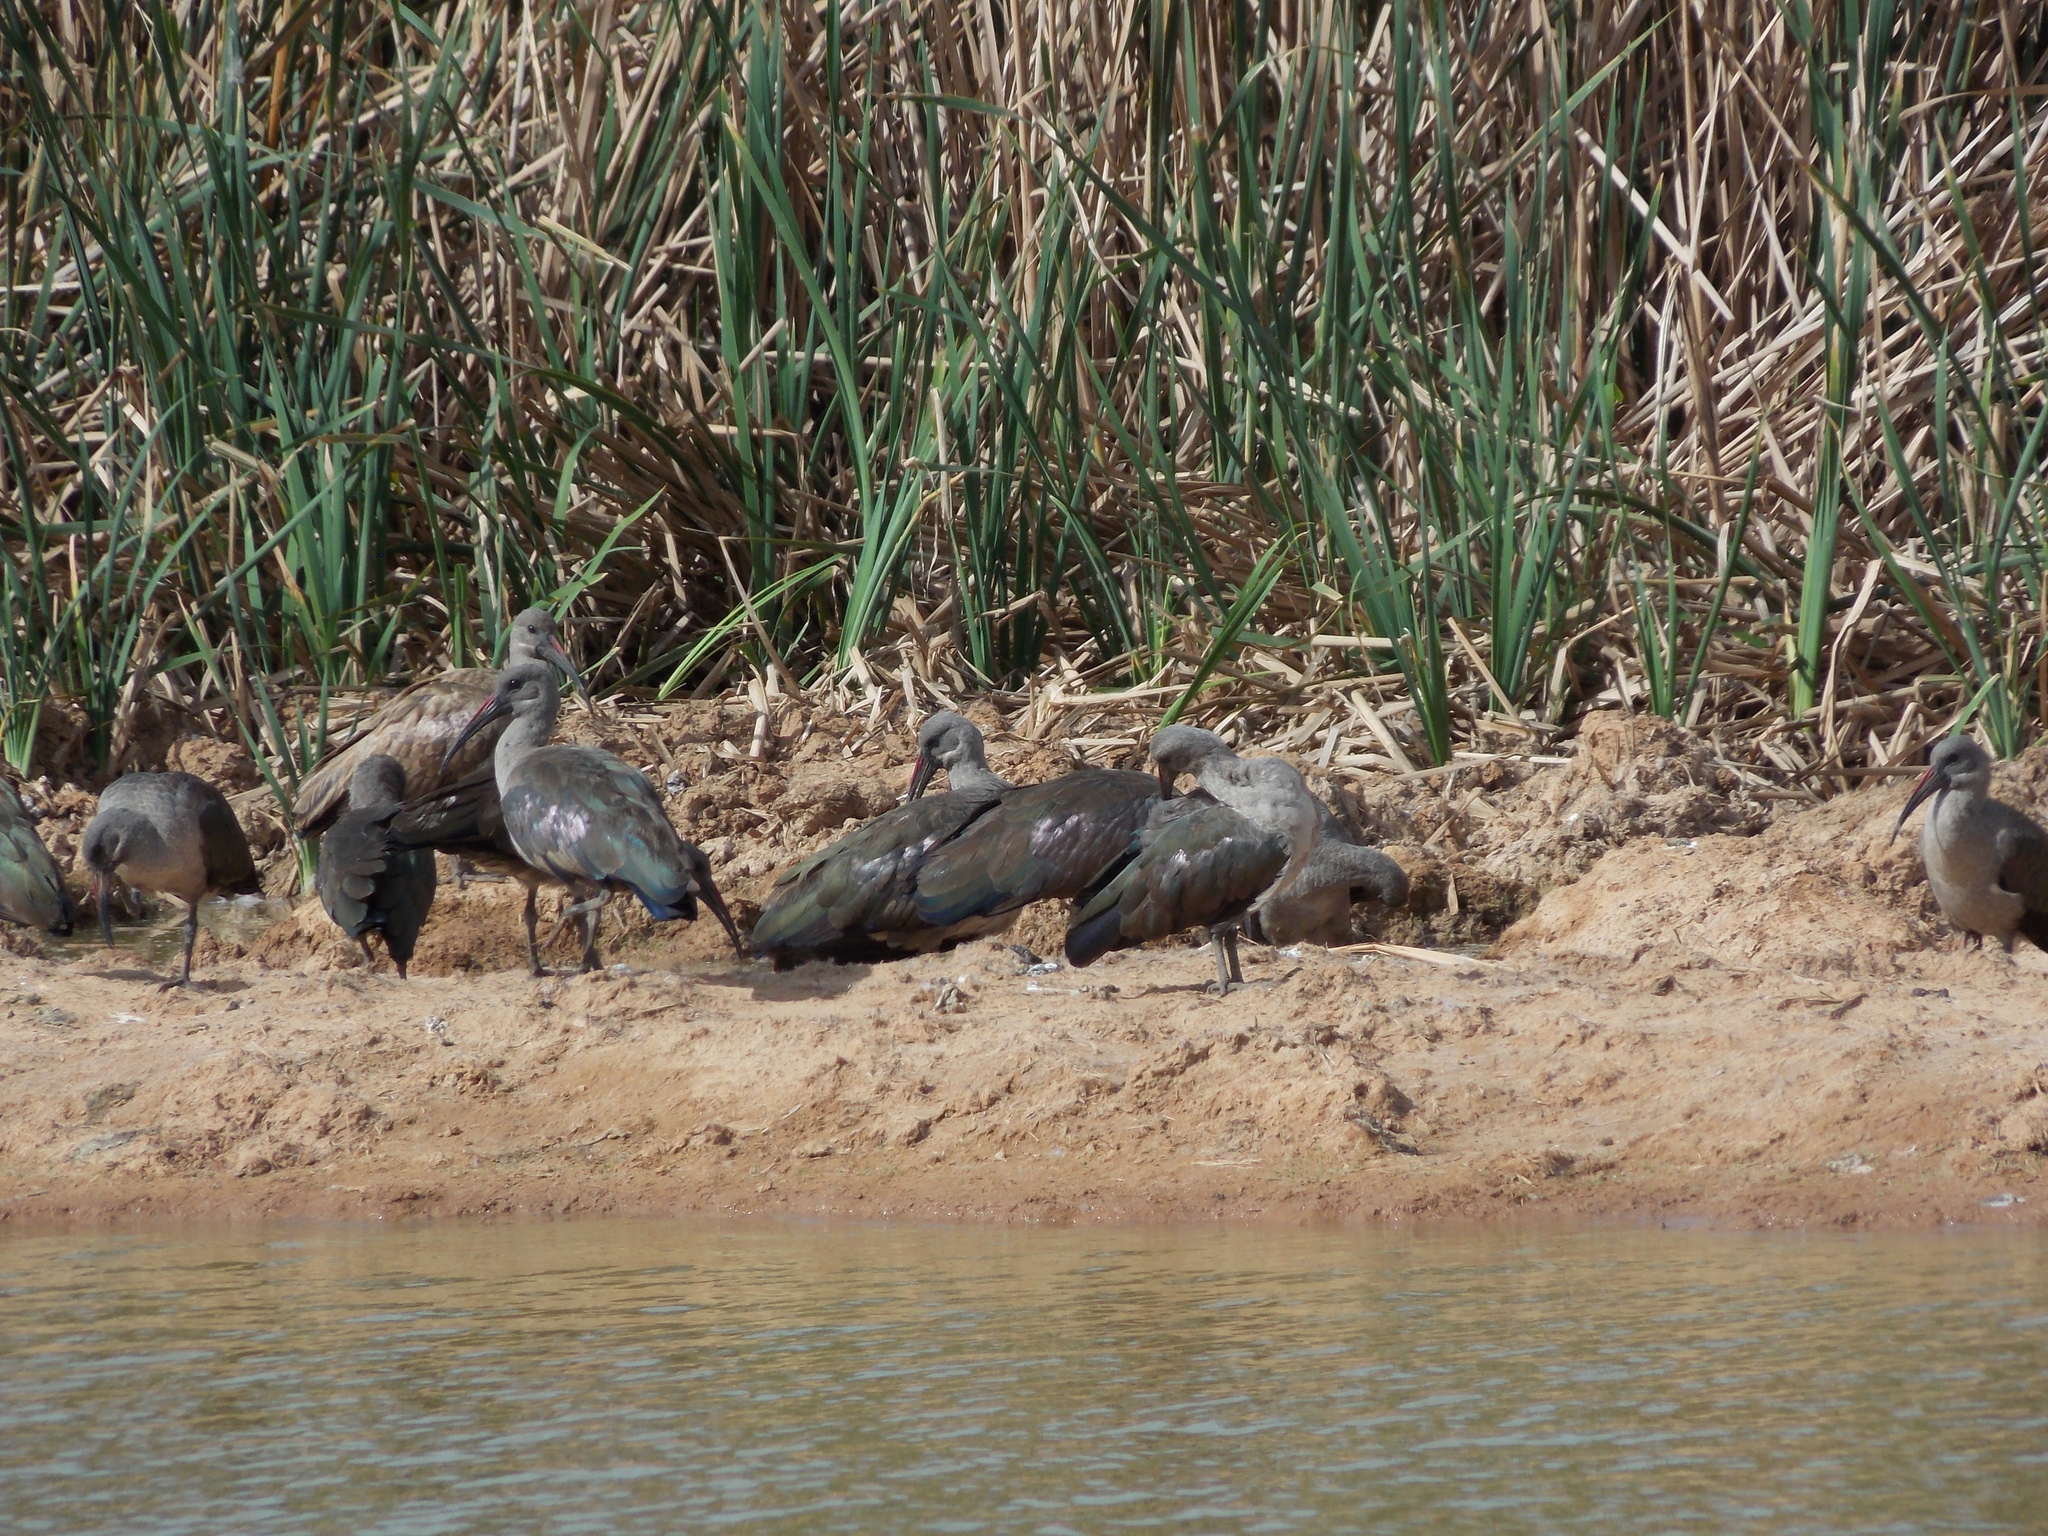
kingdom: Animalia
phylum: Chordata
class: Aves
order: Pelecaniformes
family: Threskiornithidae
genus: Bostrychia
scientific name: Bostrychia hagedash
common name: Hadada ibis
